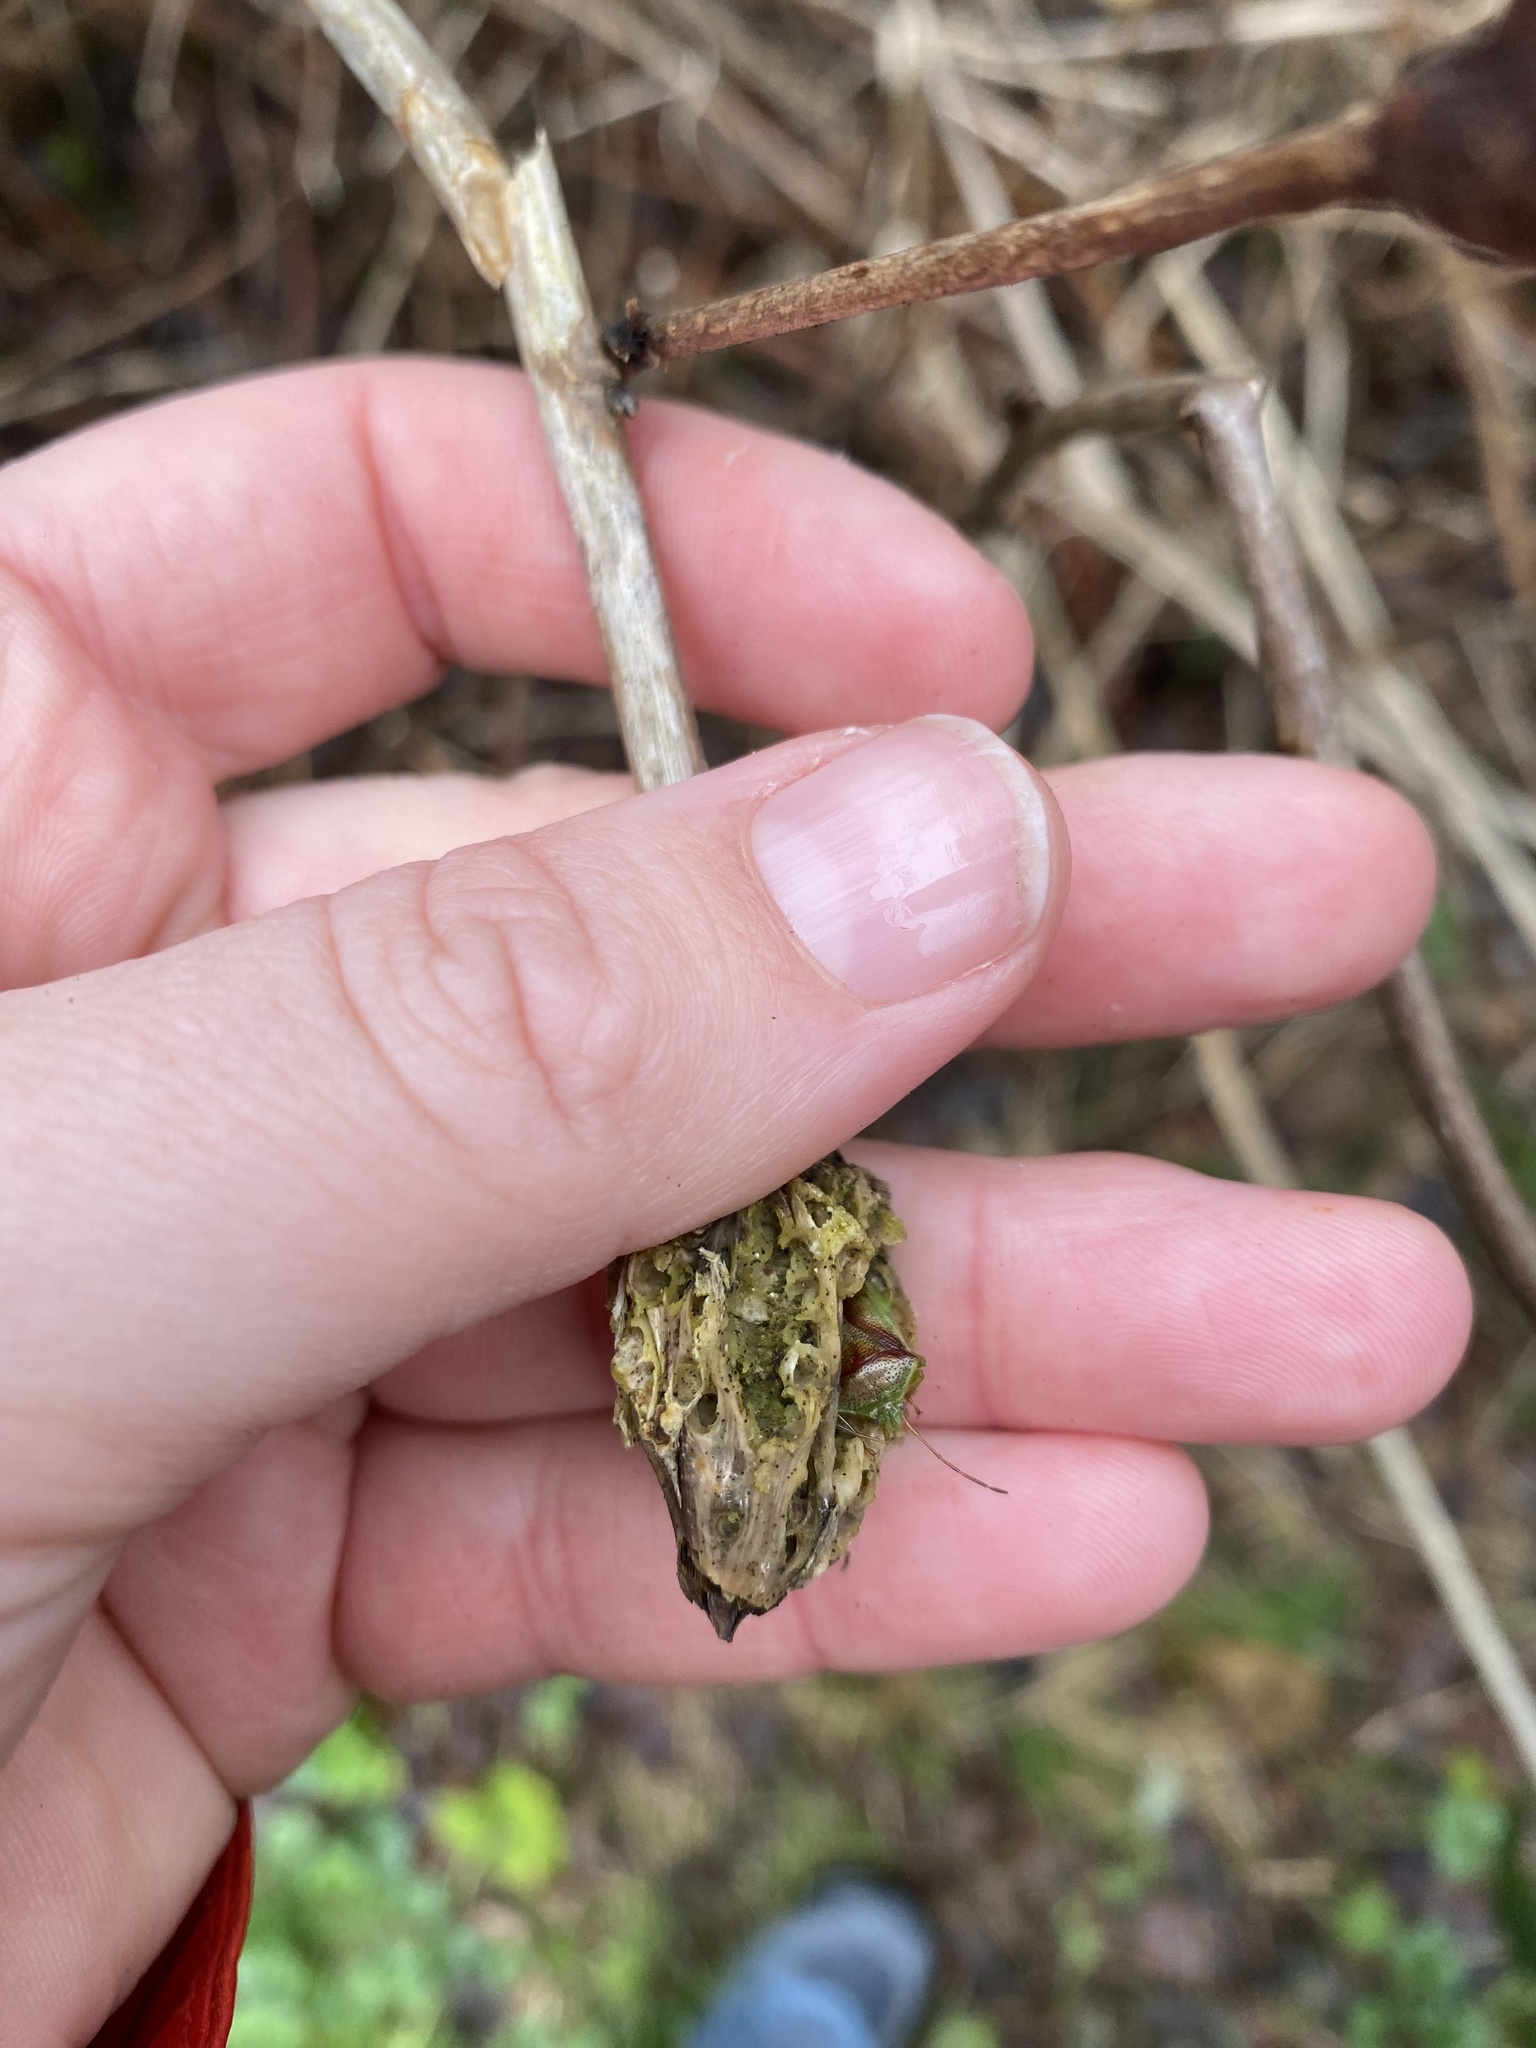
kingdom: Animalia
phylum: Arthropoda
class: Insecta
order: Hymenoptera
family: Cynipidae
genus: Diastrophus
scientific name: Diastrophus
